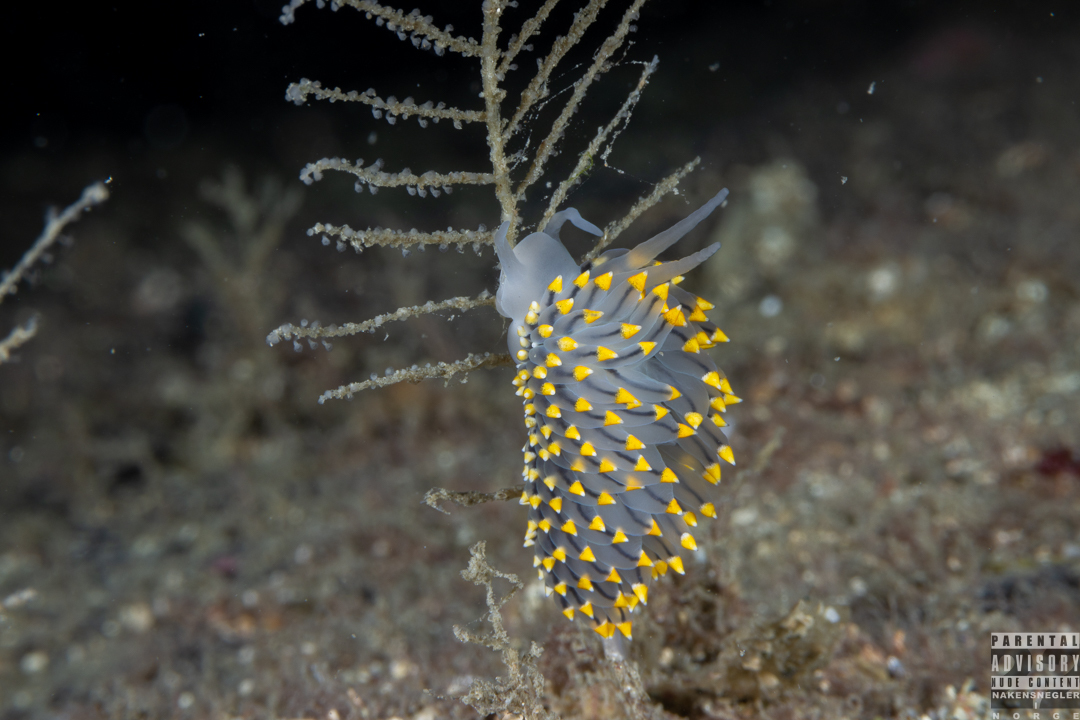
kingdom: Animalia
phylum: Mollusca
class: Gastropoda
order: Nudibranchia
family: Eubranchidae
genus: Eubranchus
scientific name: Eubranchus tricolor
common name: Painted balloon aeolis
